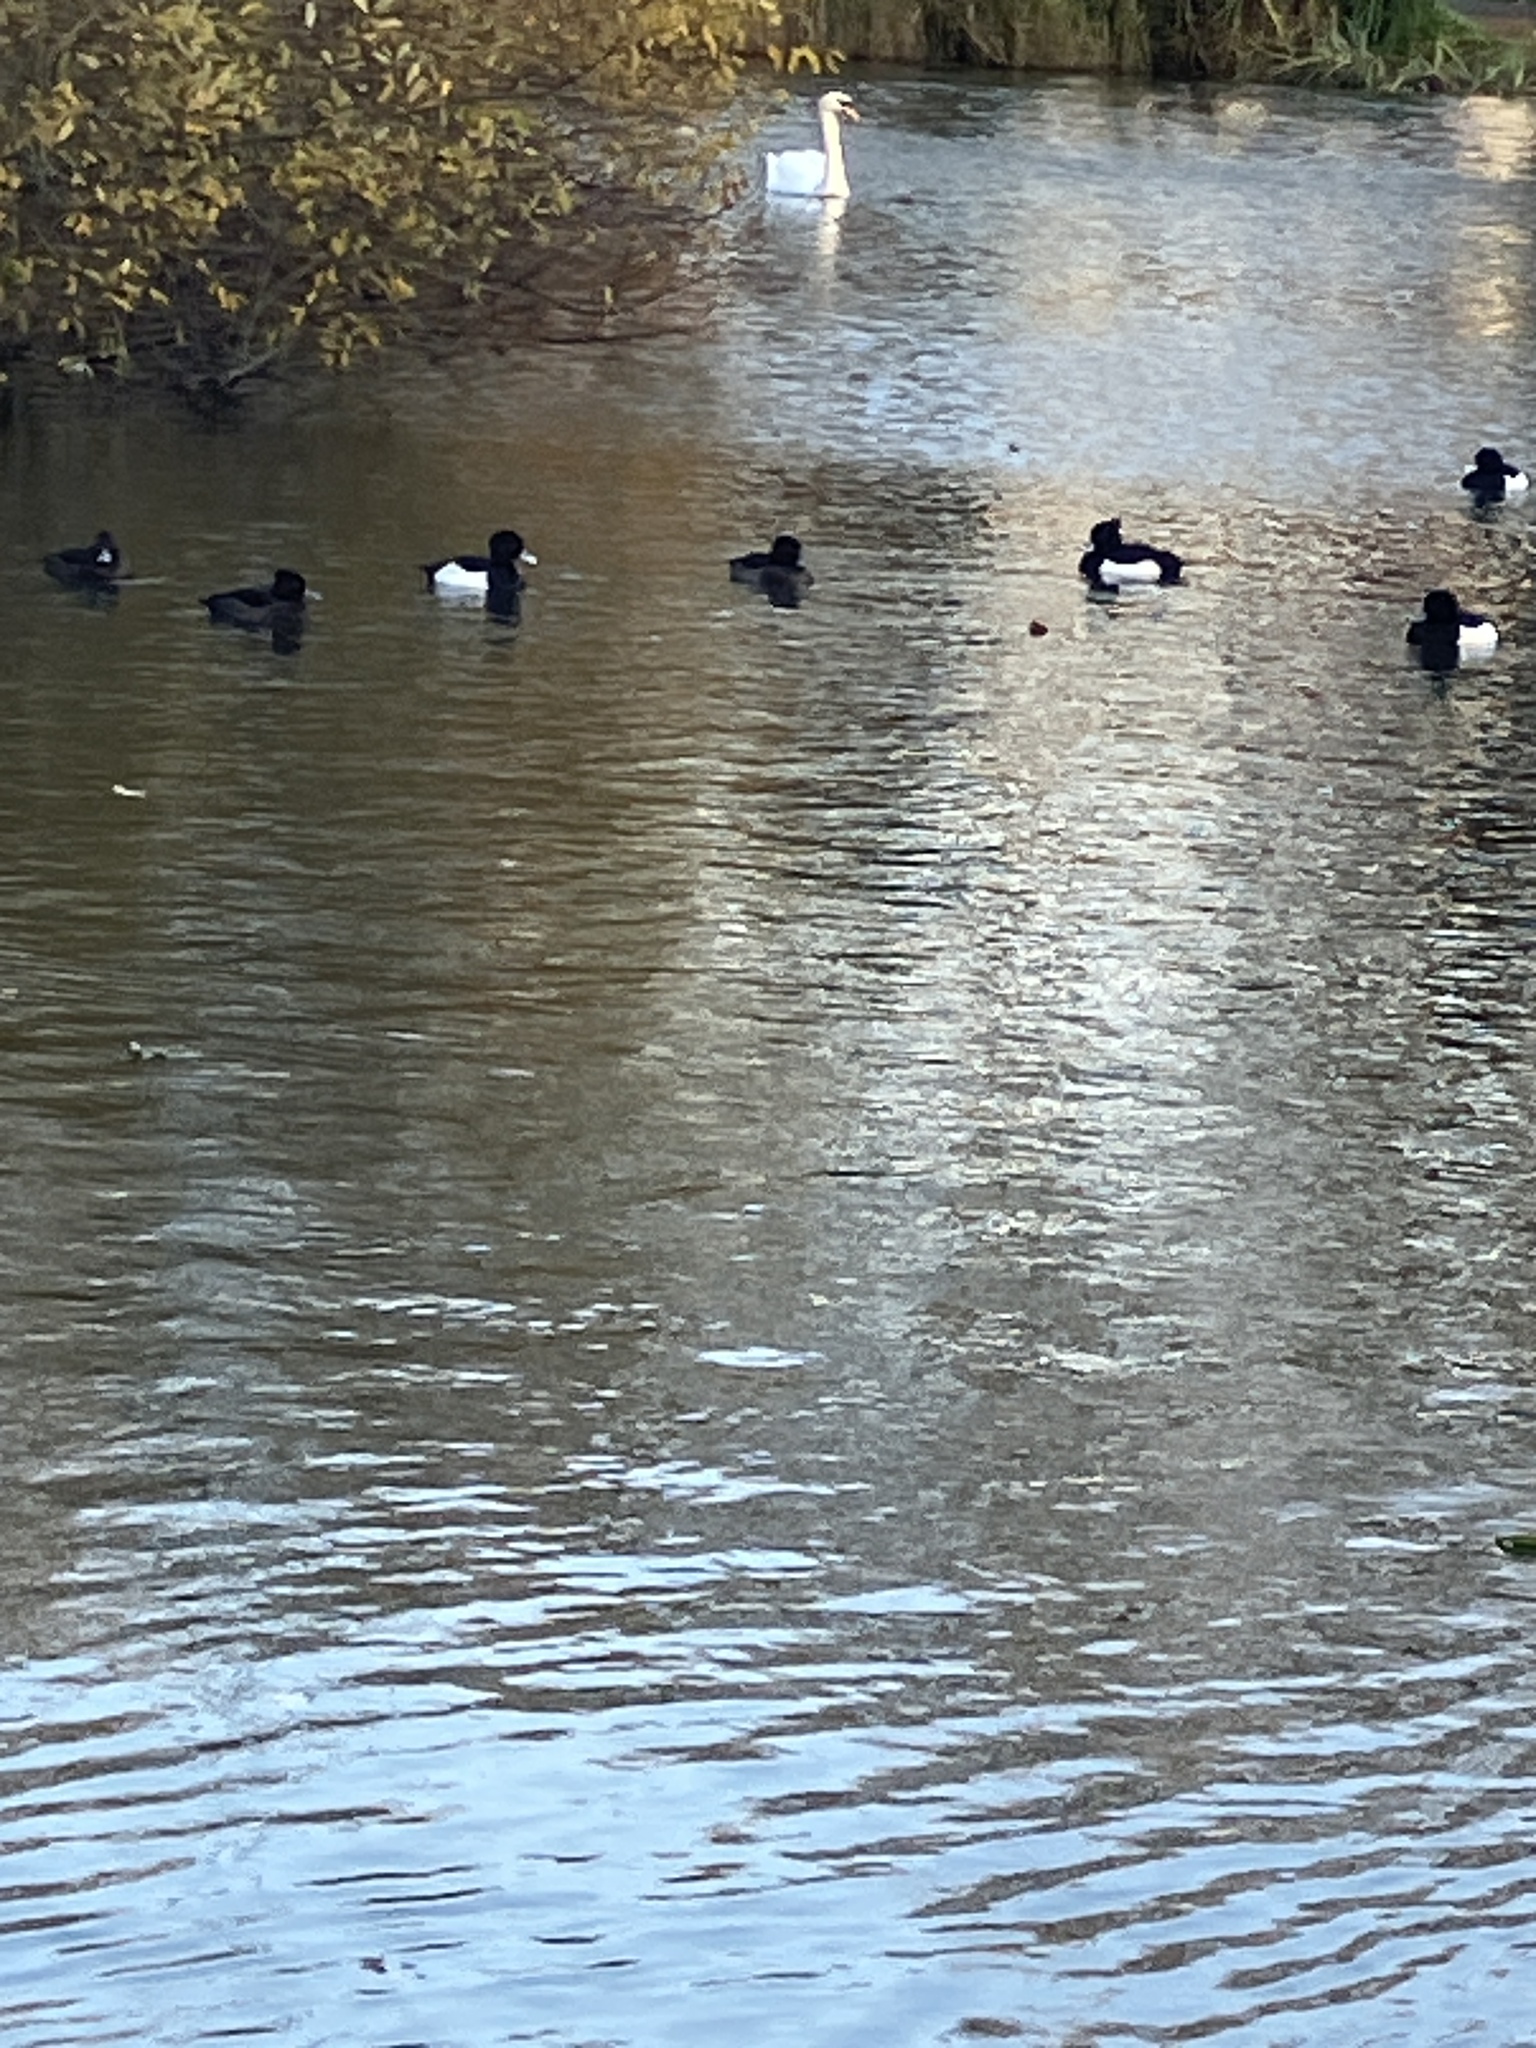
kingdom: Animalia
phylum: Chordata
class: Aves
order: Anseriformes
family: Anatidae
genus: Aythya
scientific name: Aythya fuligula
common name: Tufted duck
